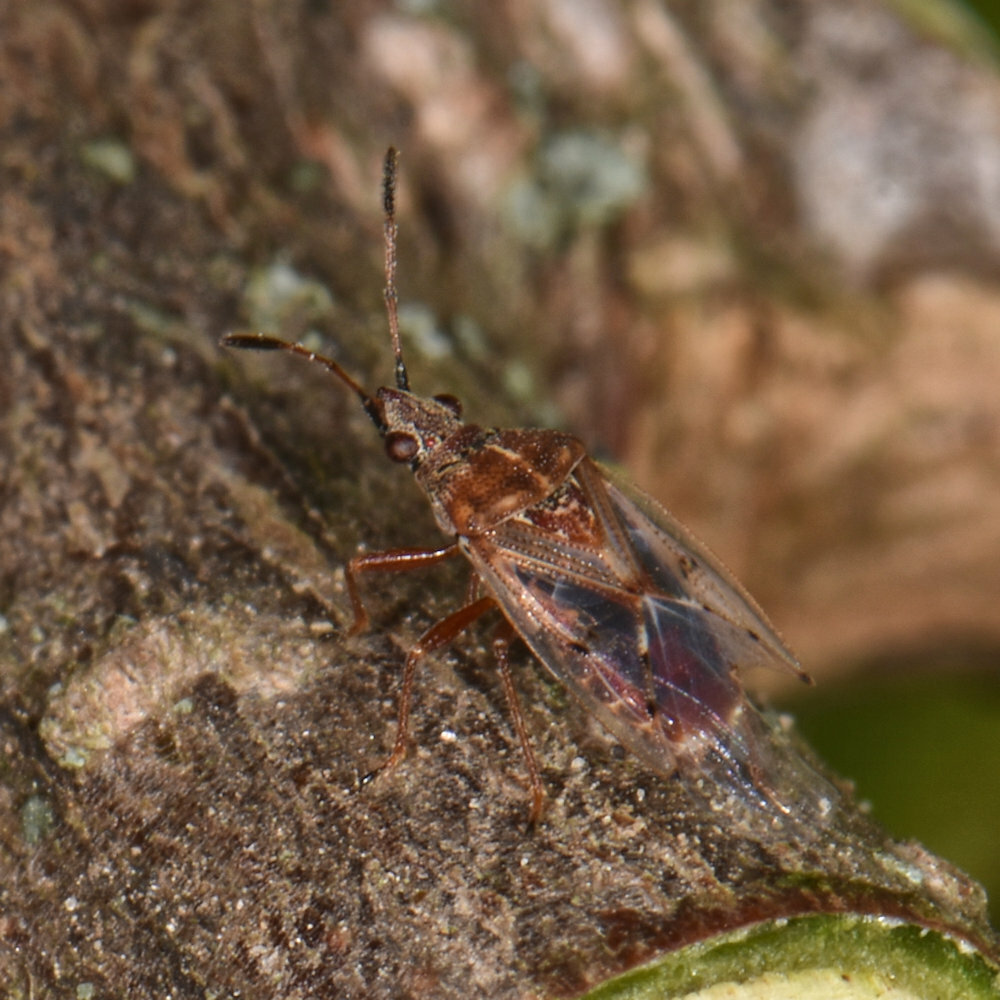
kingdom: Animalia
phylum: Arthropoda
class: Insecta
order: Hemiptera
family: Lygaeidae
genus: Kleidocerys
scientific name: Kleidocerys resedae
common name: Birch catkin bug
